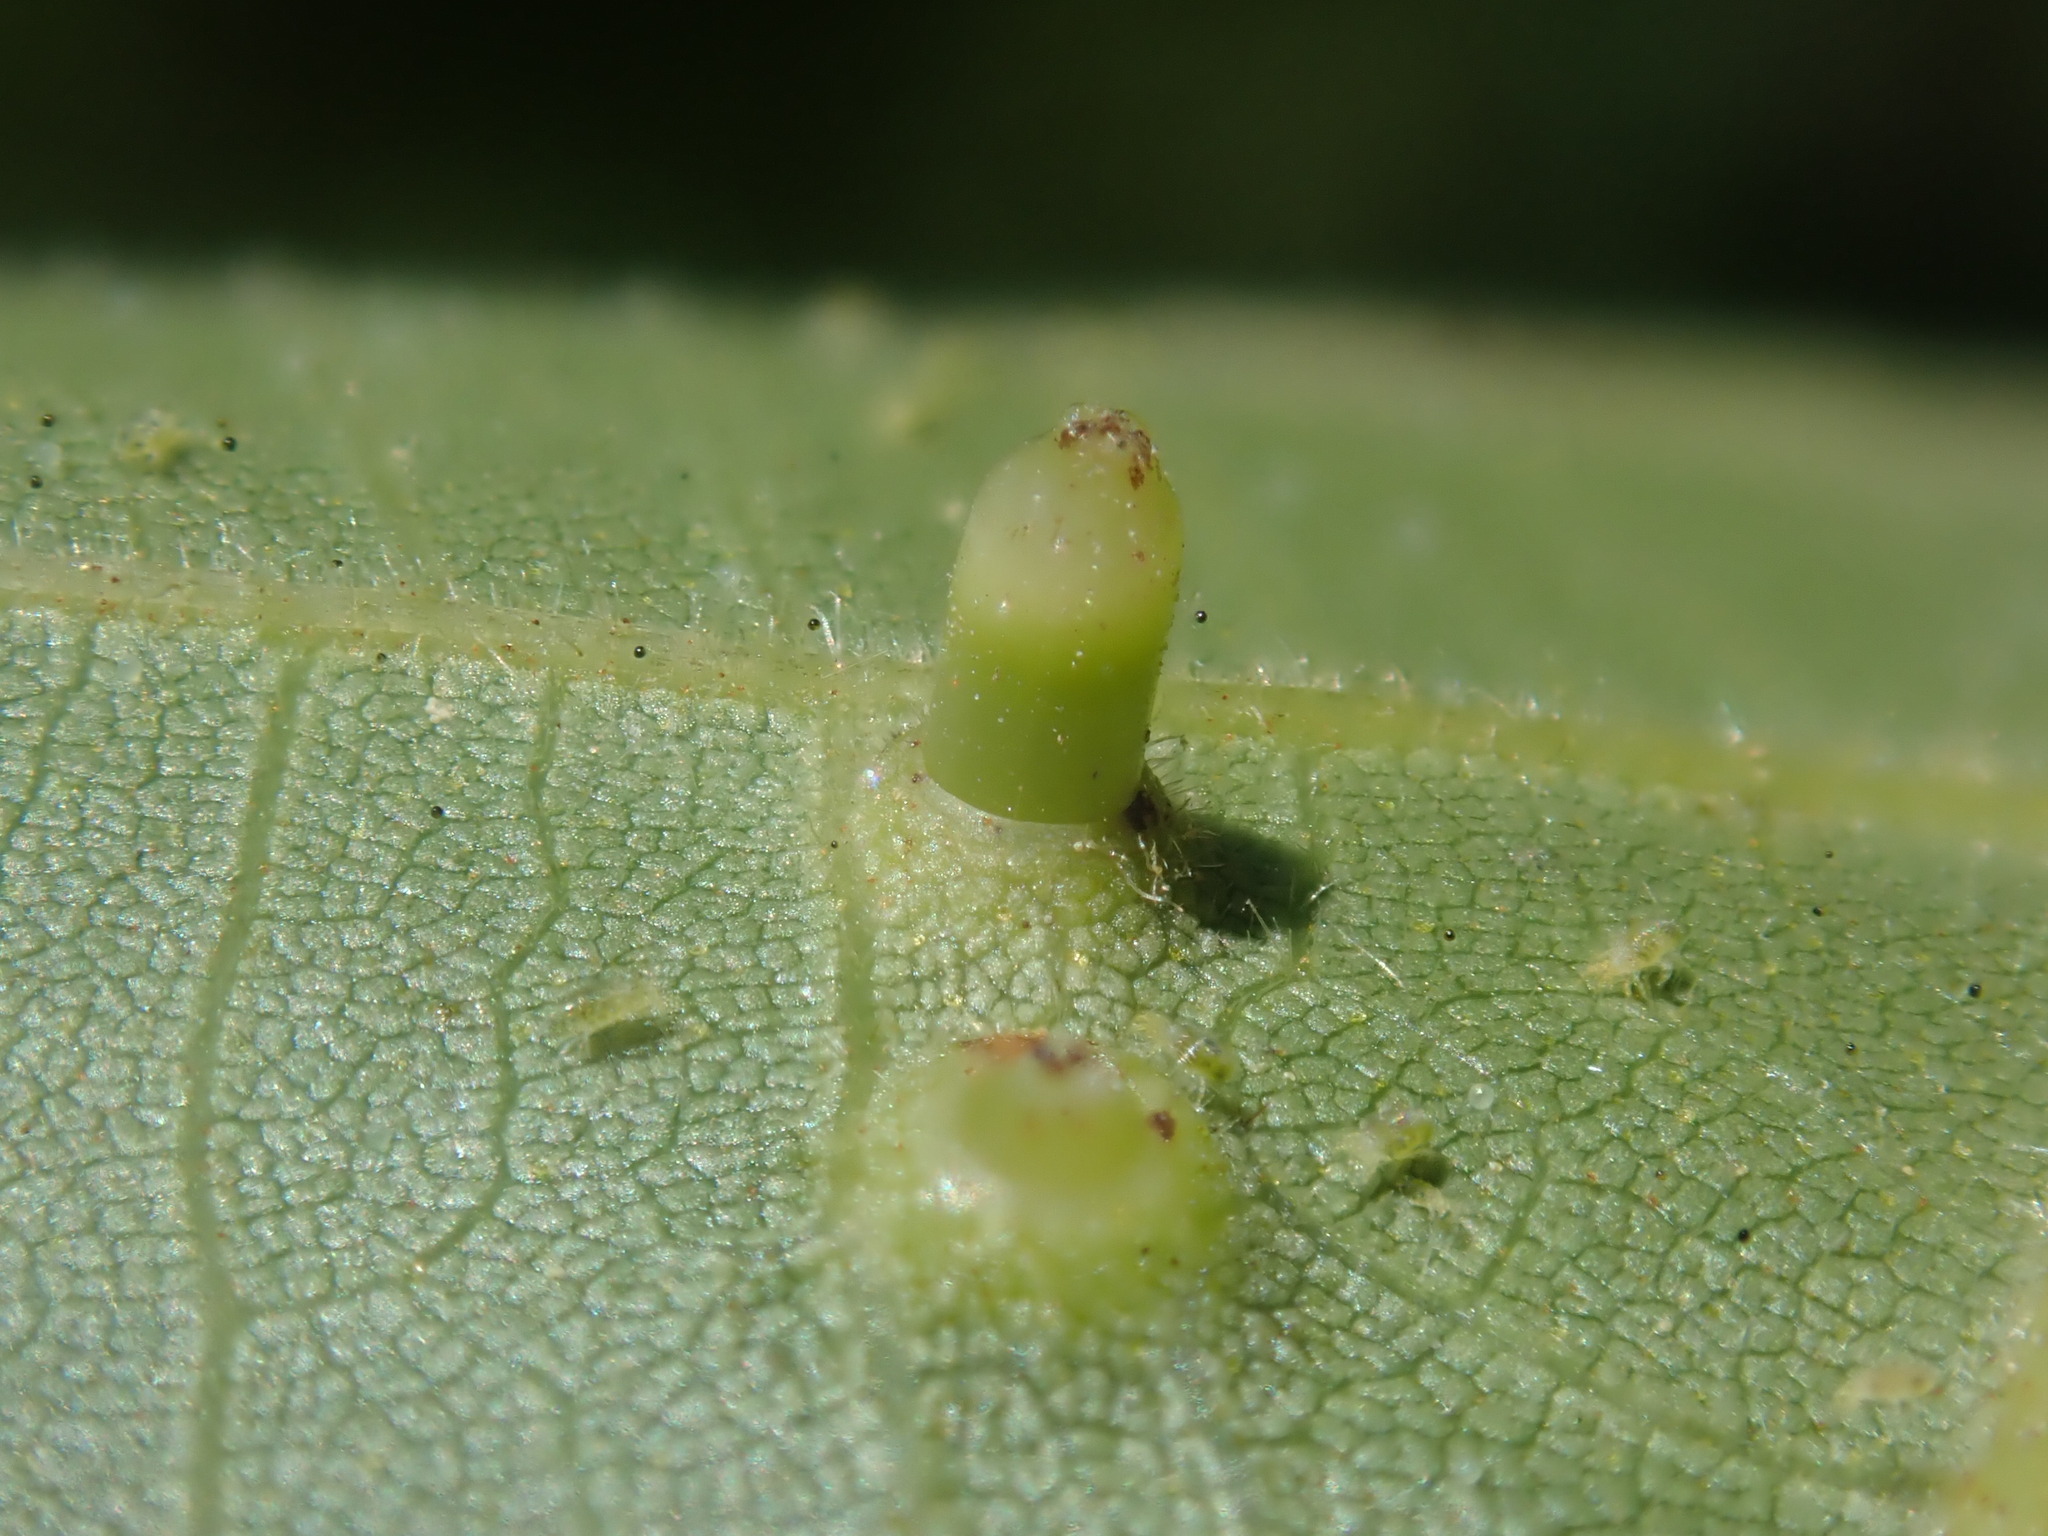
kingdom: Animalia
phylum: Arthropoda
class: Insecta
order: Diptera
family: Cecidomyiidae
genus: Caryomyia
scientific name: Caryomyia tubicola
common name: Hickory bullet gall midge
